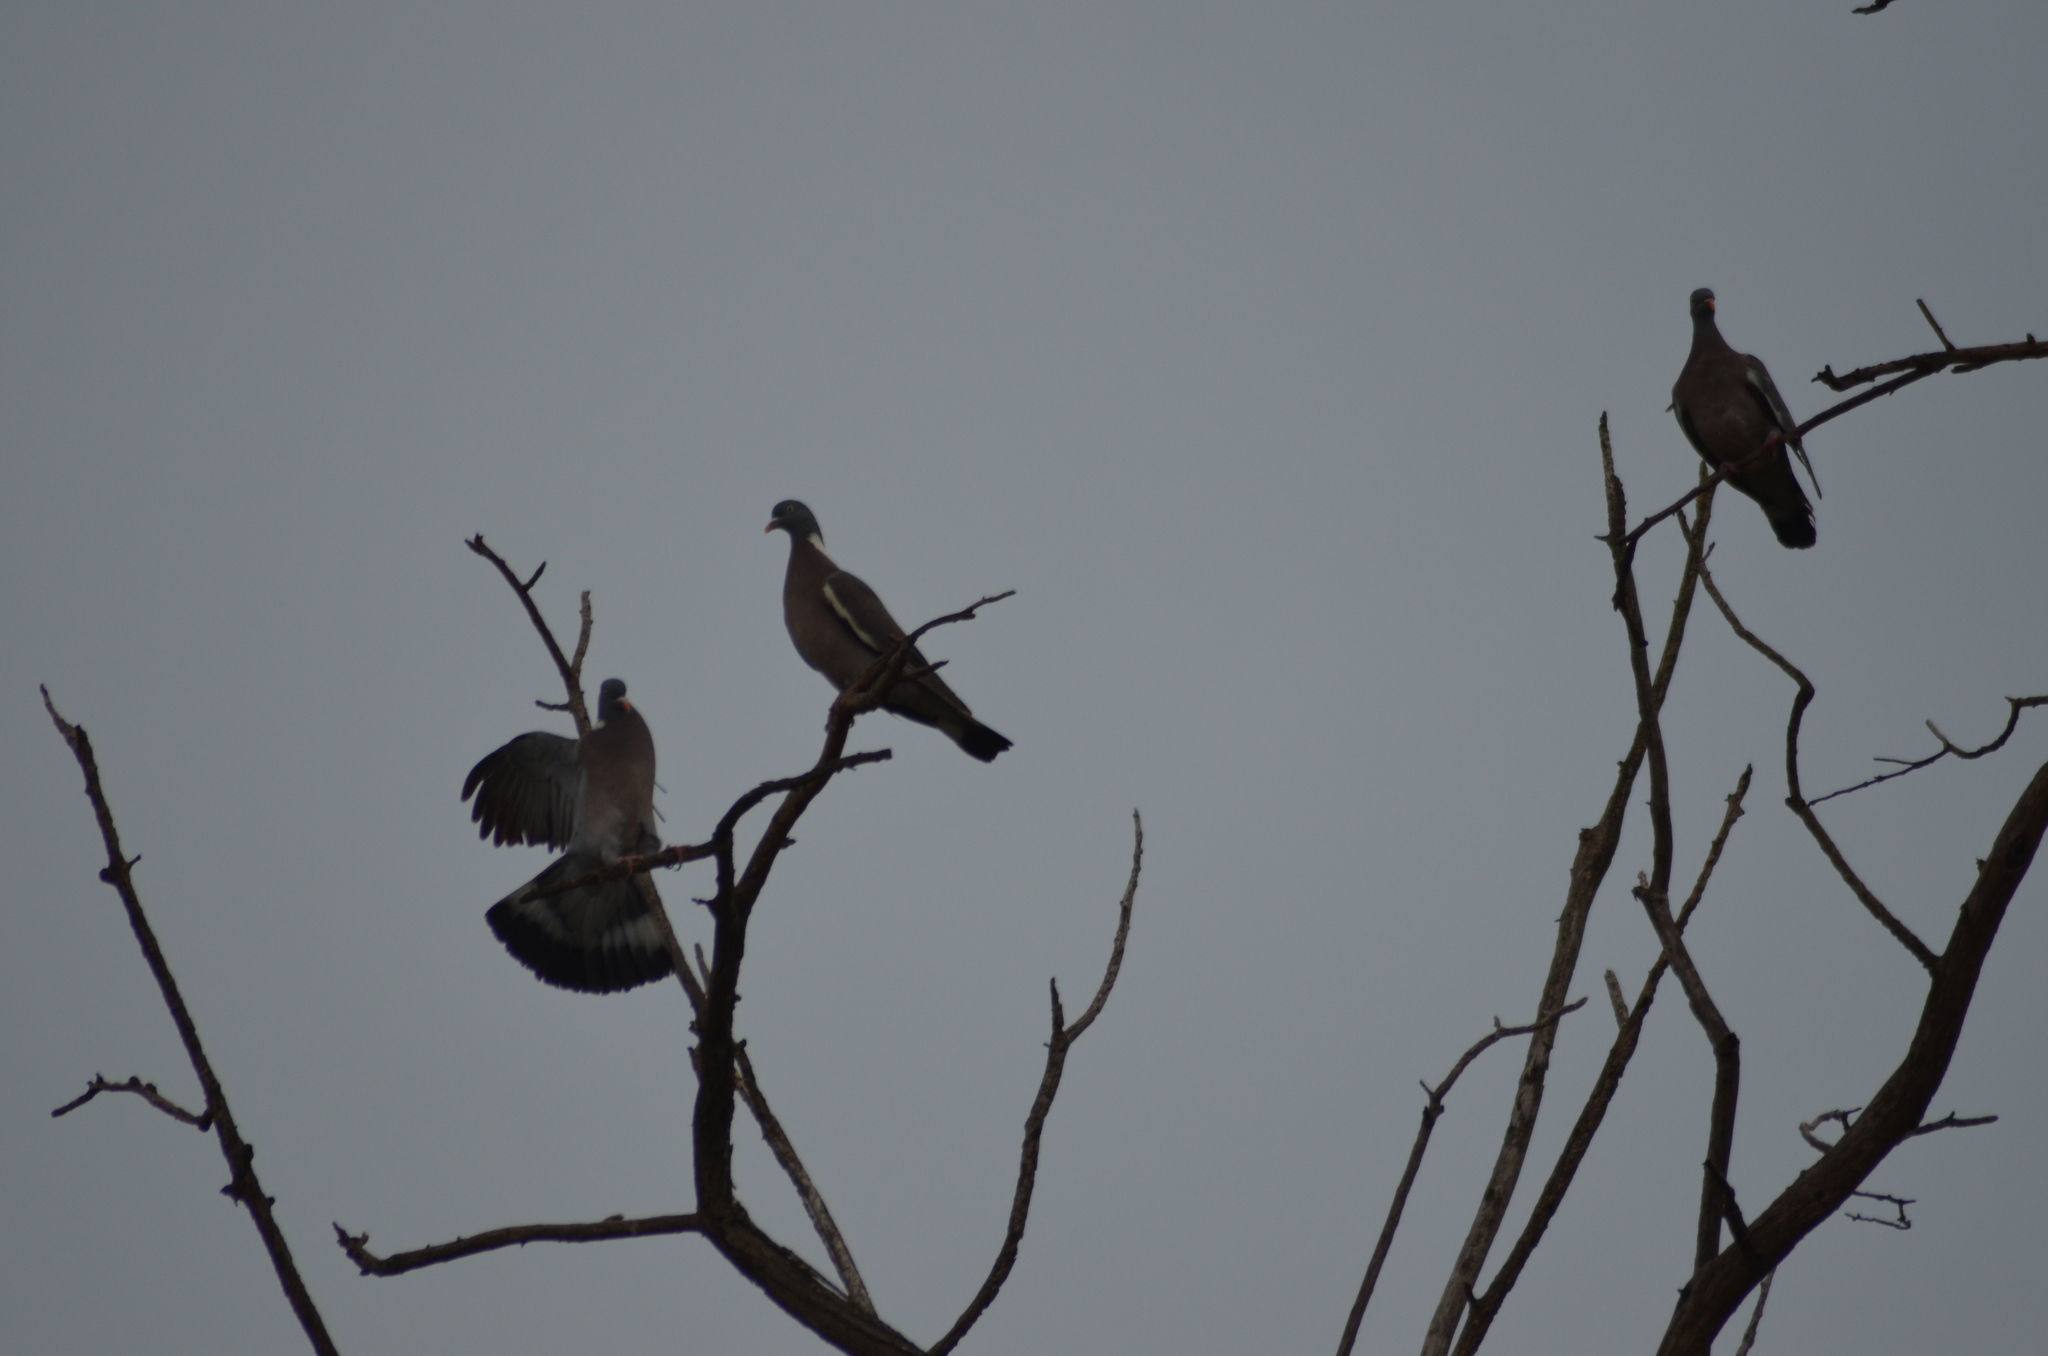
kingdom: Animalia
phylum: Chordata
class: Aves
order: Columbiformes
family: Columbidae
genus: Columba
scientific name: Columba palumbus
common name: Common wood pigeon
